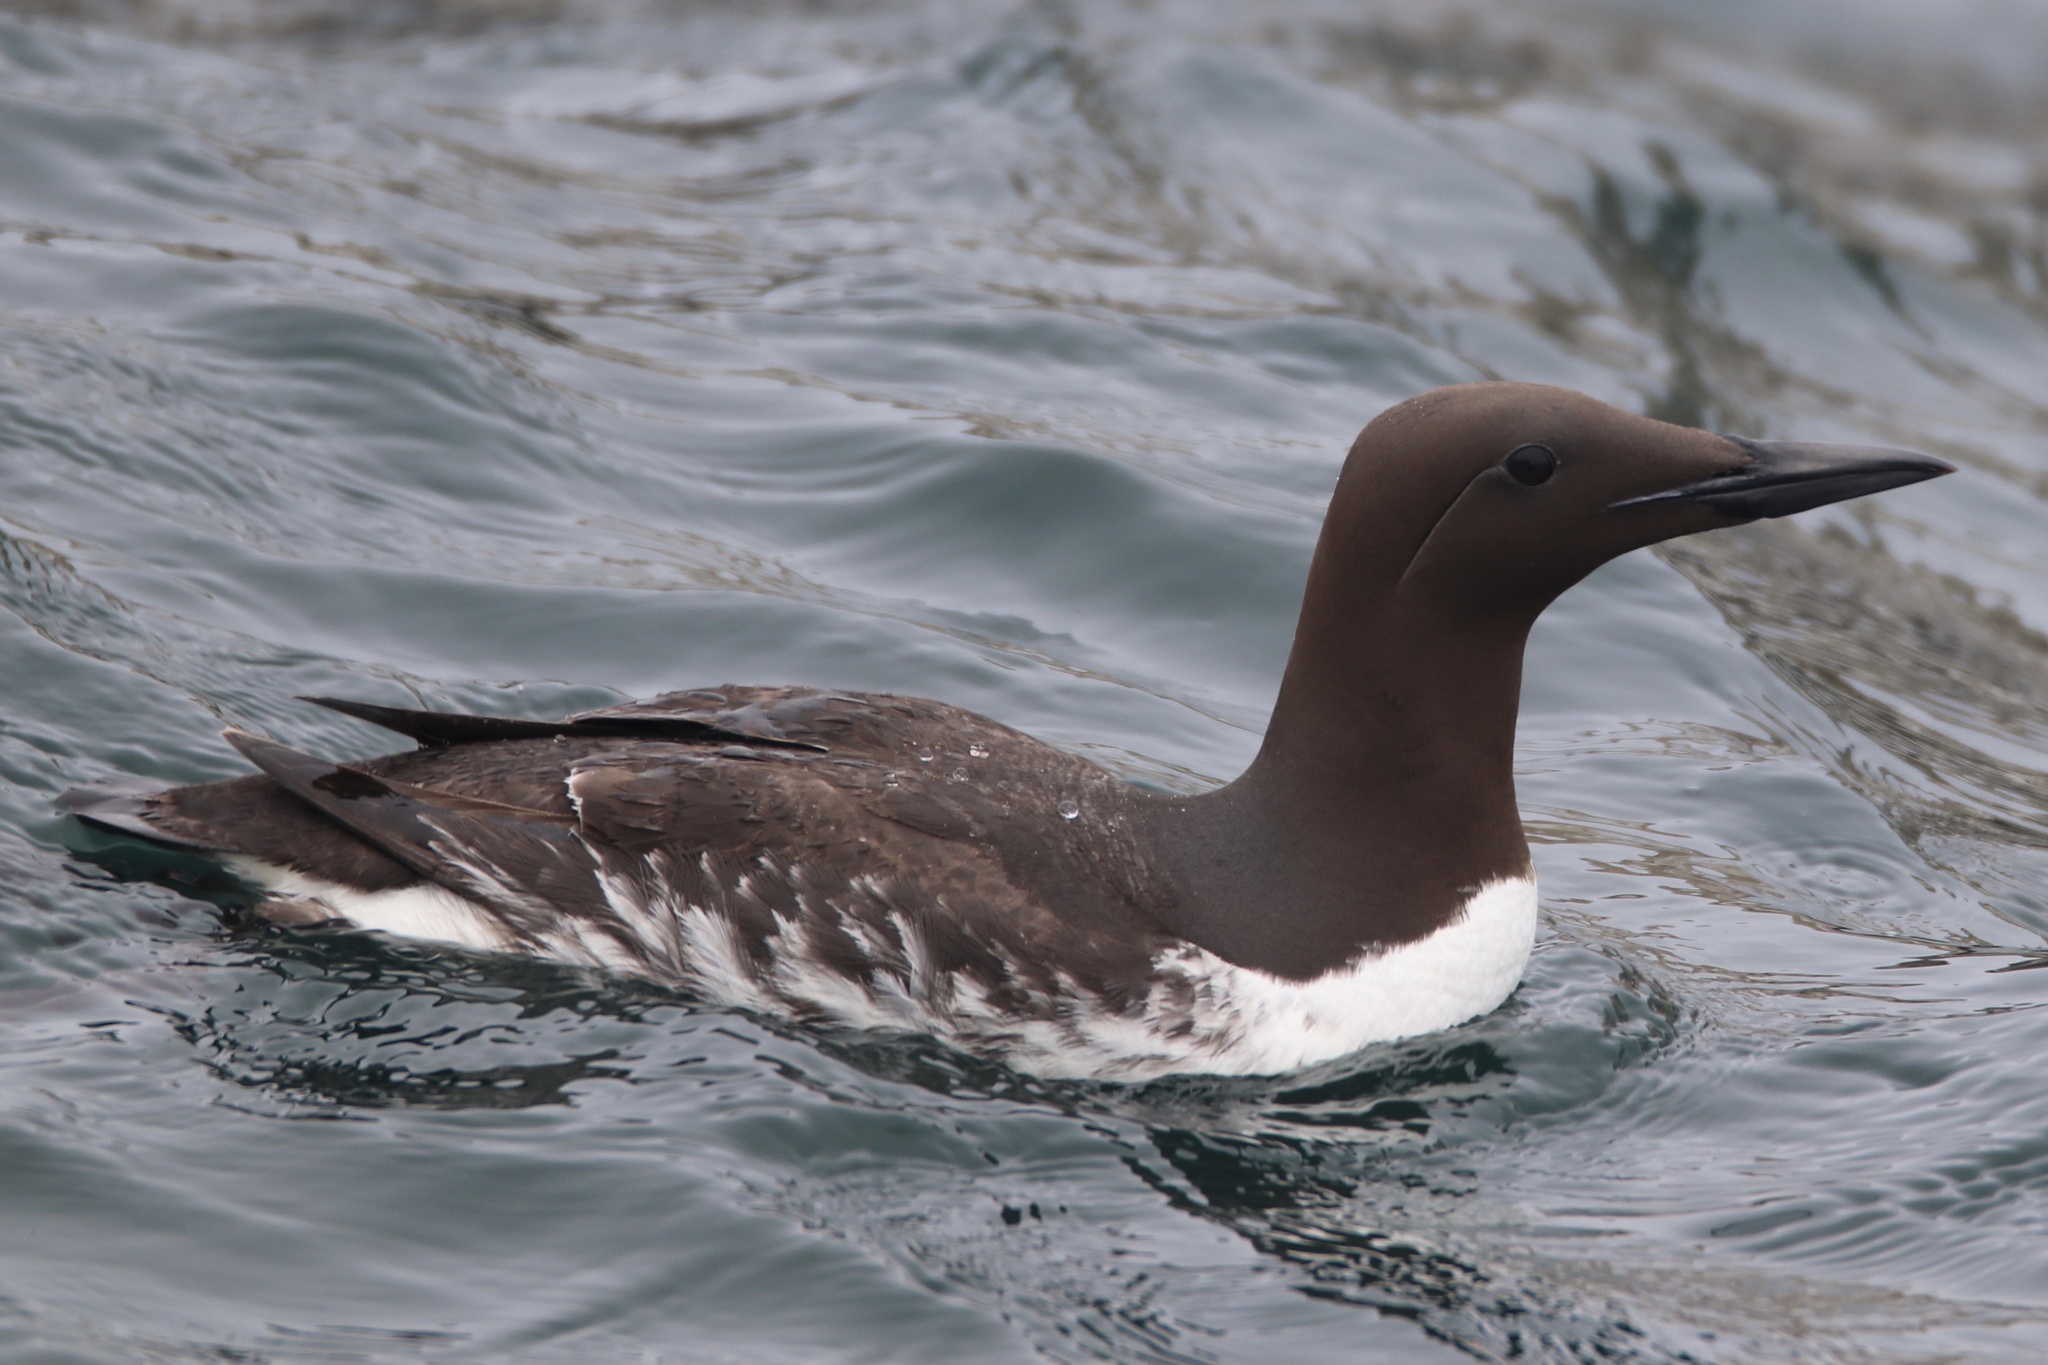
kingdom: Animalia
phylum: Chordata
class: Aves
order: Charadriiformes
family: Alcidae
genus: Uria
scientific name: Uria aalge
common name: Common murre
